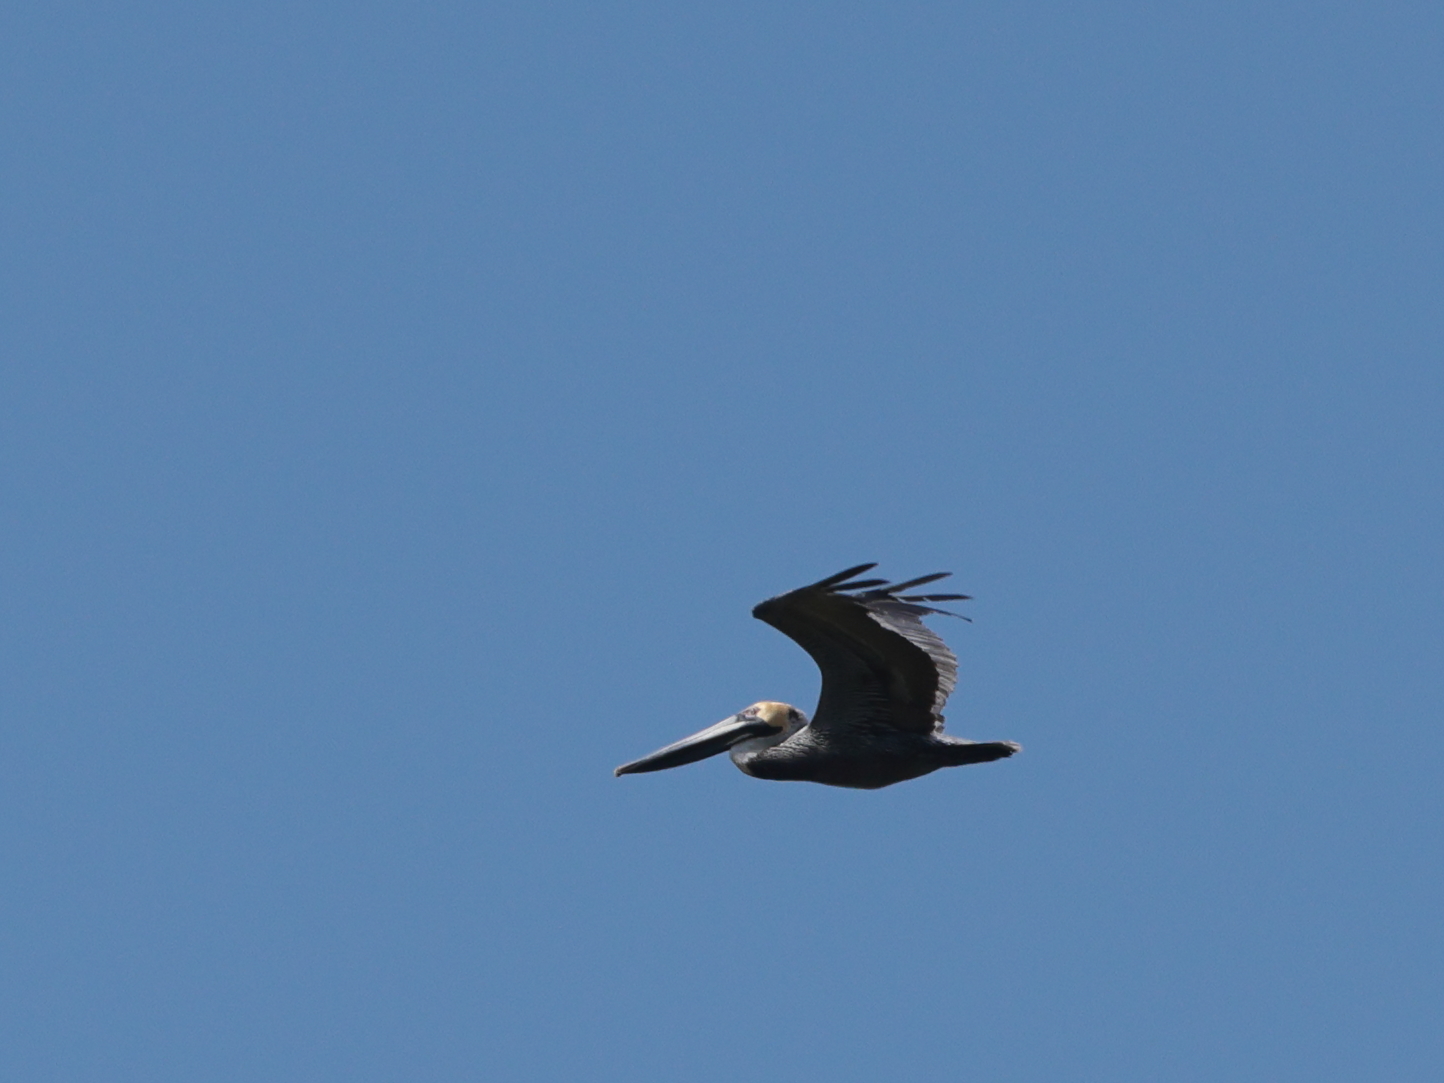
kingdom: Animalia
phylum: Chordata
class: Aves
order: Pelecaniformes
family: Pelecanidae
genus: Pelecanus
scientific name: Pelecanus occidentalis
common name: Brown pelican
